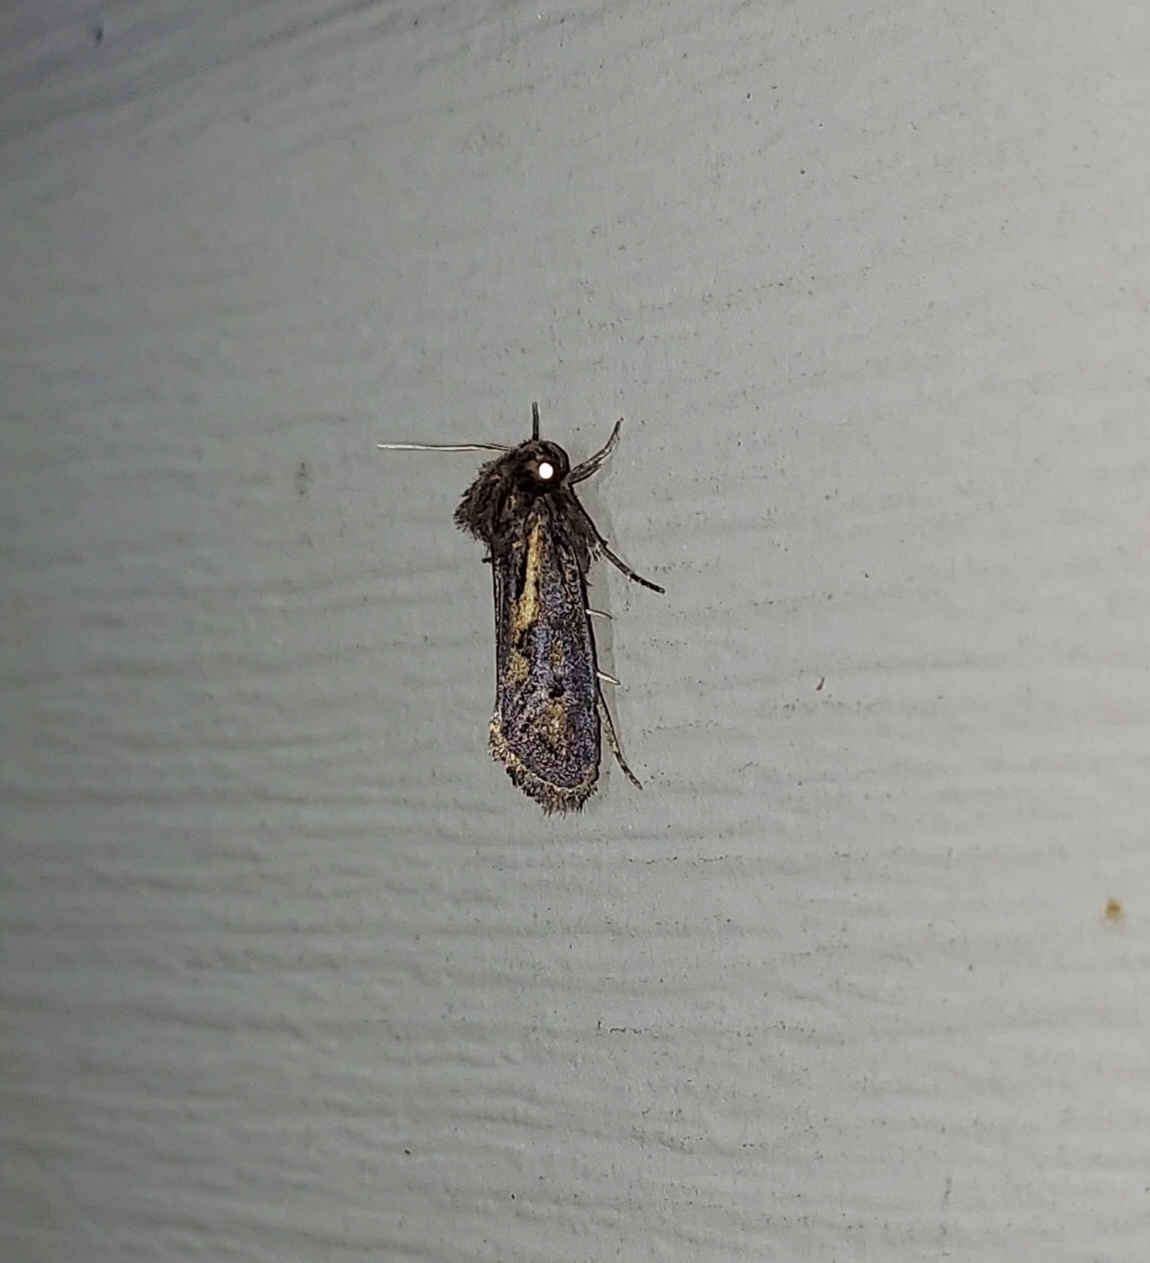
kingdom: Animalia
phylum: Arthropoda
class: Insecta
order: Lepidoptera
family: Tineidae
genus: Acrolophus
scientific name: Acrolophus popeanella
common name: Clemens' grass tubeworm moth
